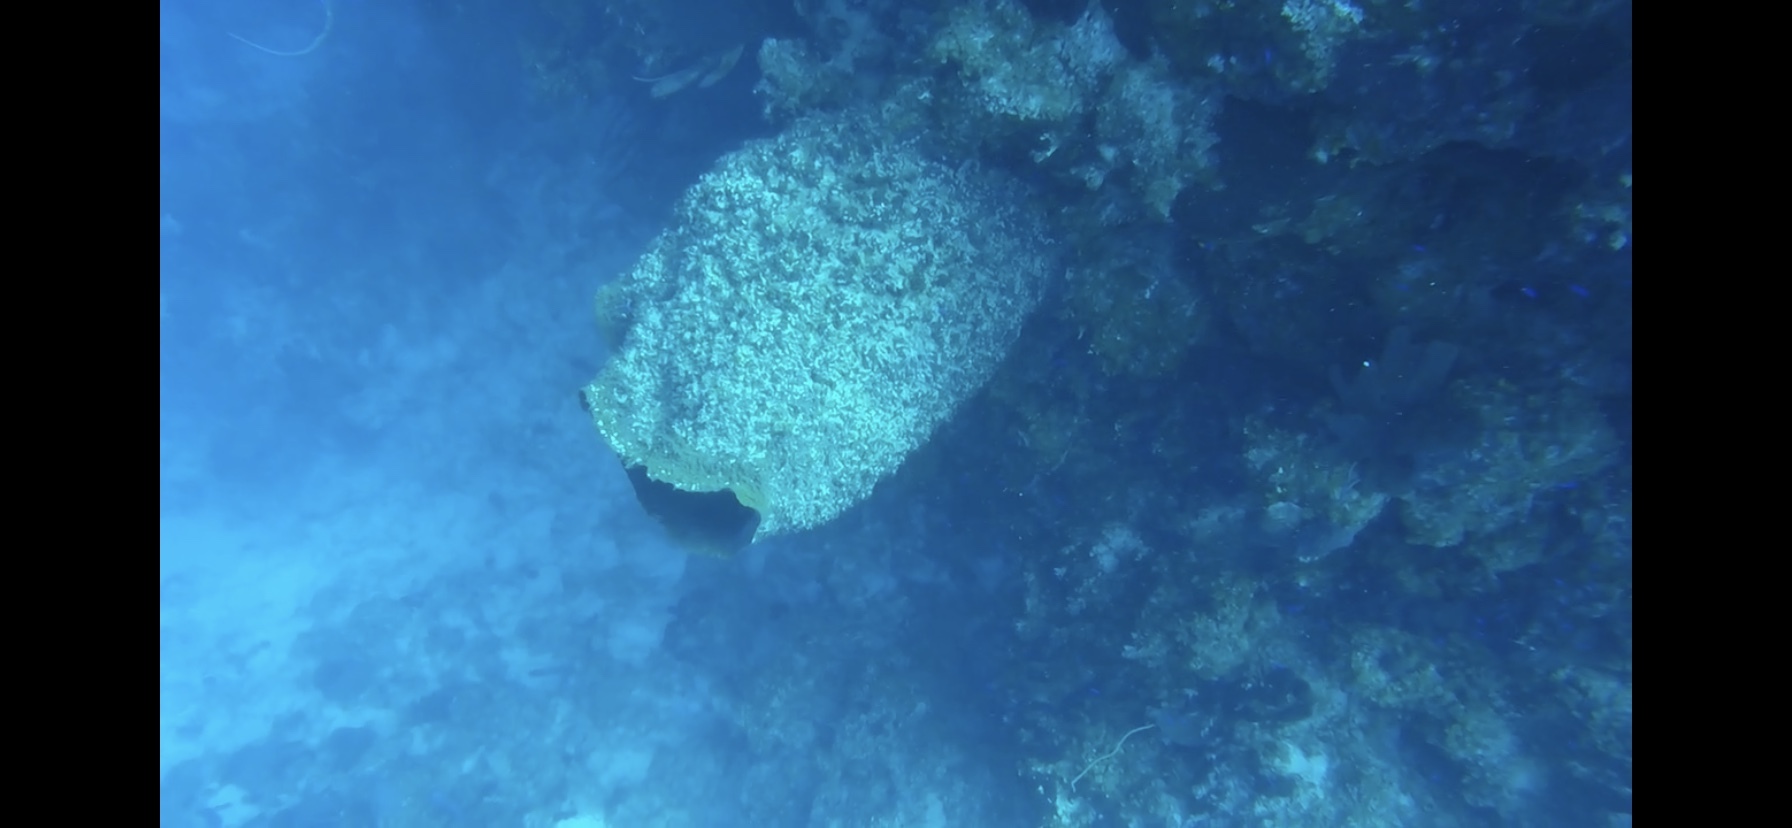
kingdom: Animalia
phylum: Porifera
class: Demospongiae
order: Haplosclerida
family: Petrosiidae
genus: Xestospongia
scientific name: Xestospongia muta
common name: Giant barrel sponge
